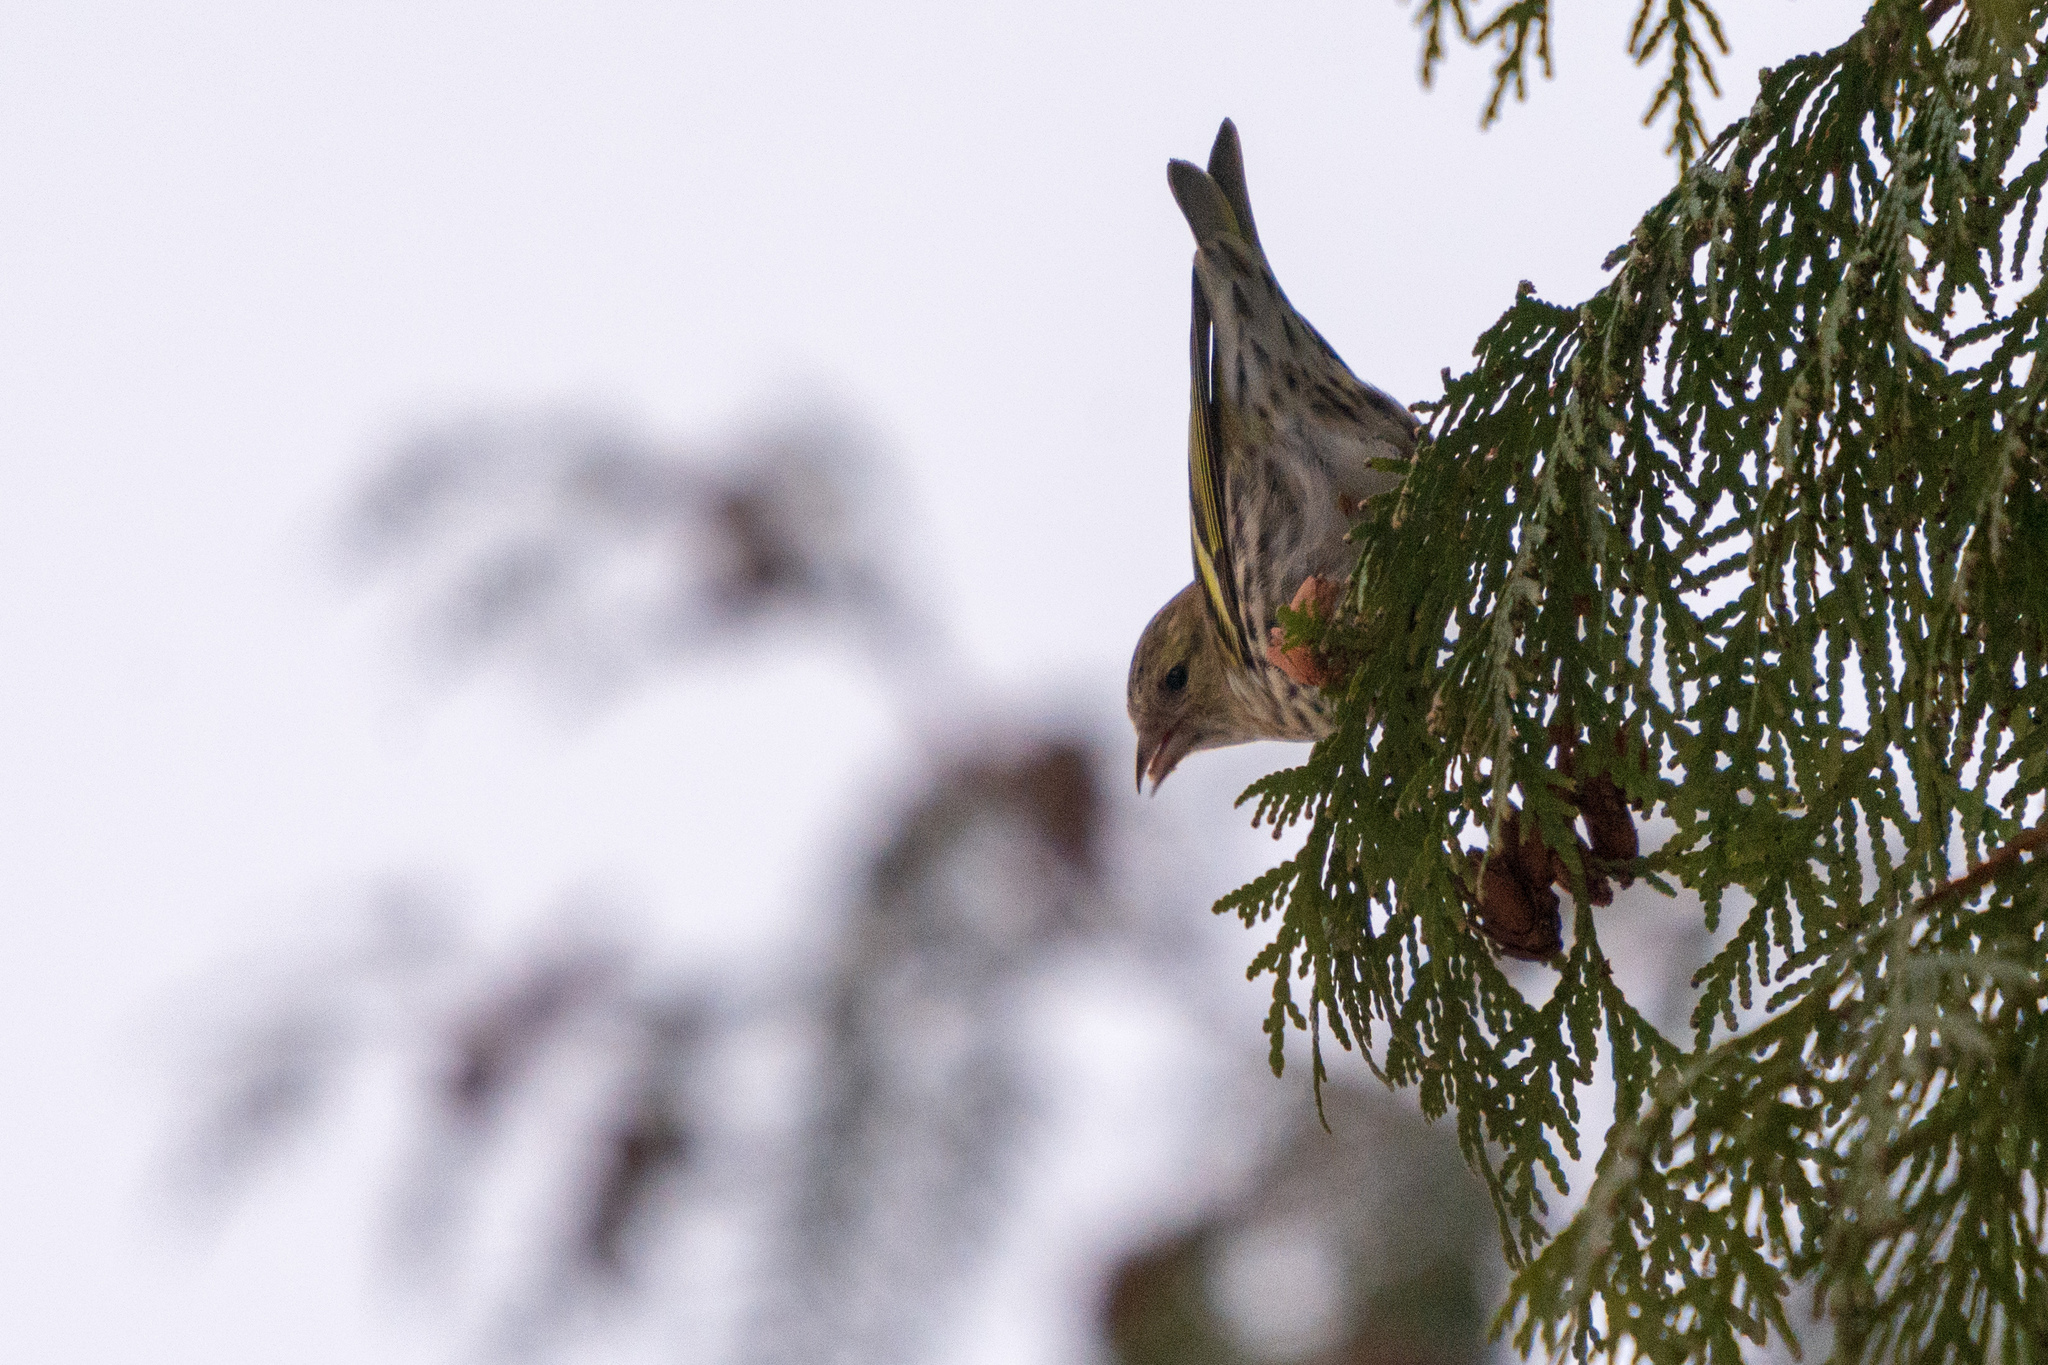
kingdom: Animalia
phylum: Chordata
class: Aves
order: Passeriformes
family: Fringillidae
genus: Spinus
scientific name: Spinus spinus
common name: Eurasian siskin
